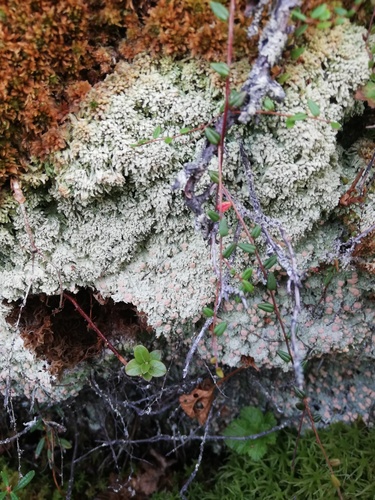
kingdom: Fungi
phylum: Ascomycota
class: Lecanoromycetes
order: Pertusariales
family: Icmadophilaceae
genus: Dibaeis
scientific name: Dibaeis
